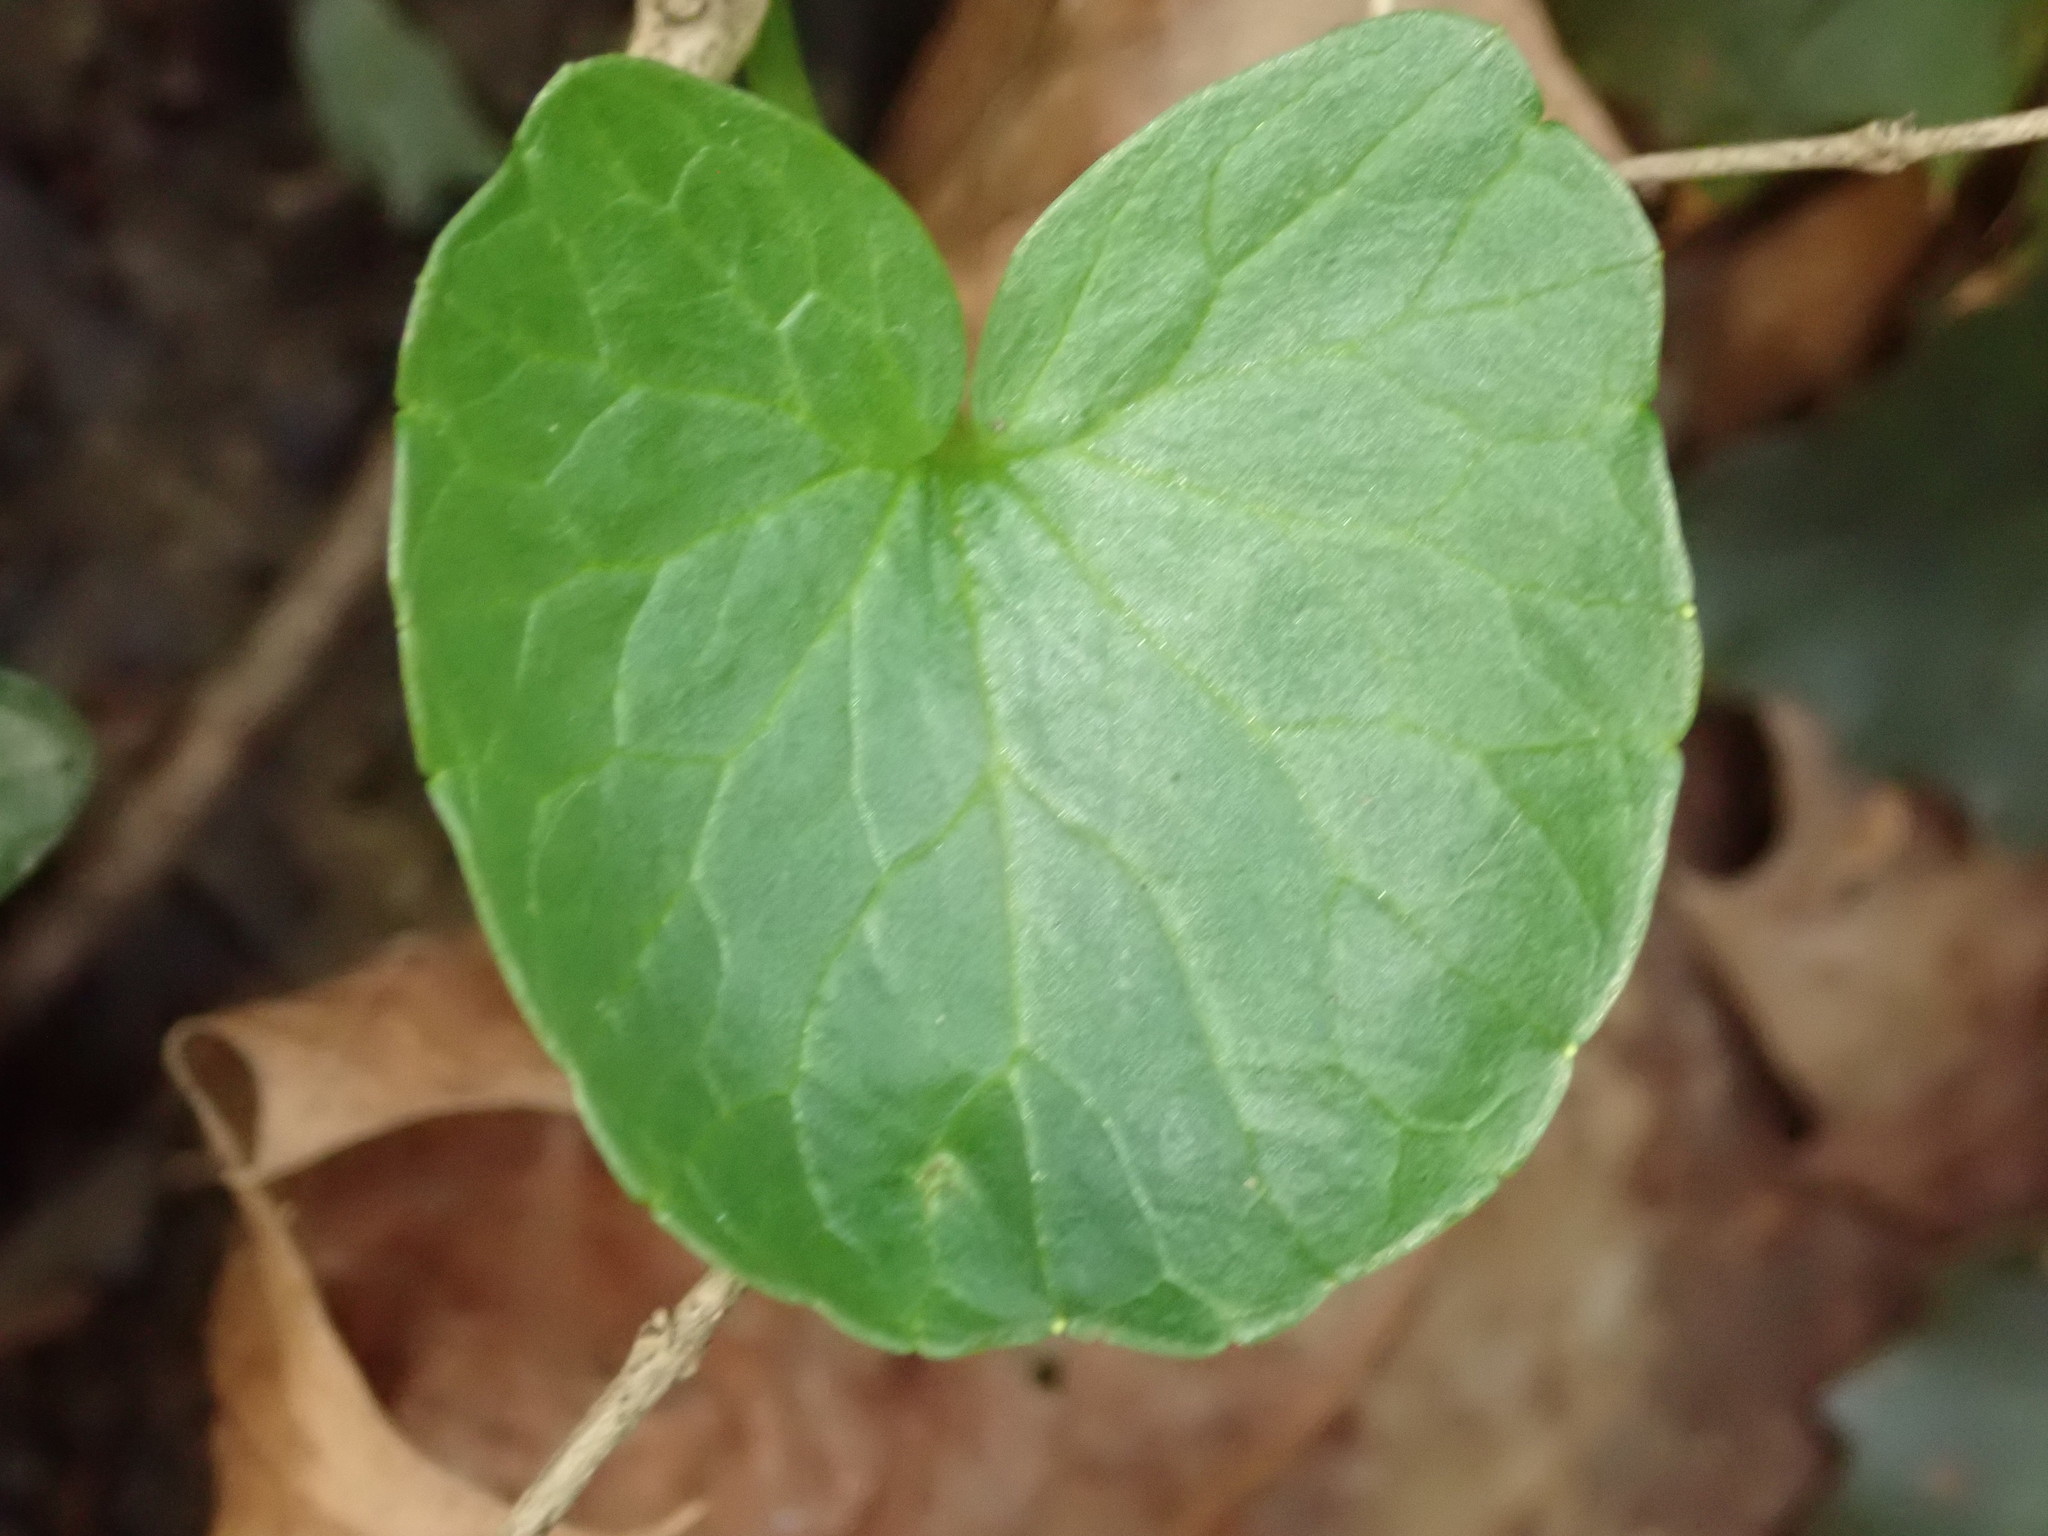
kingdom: Plantae
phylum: Tracheophyta
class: Magnoliopsida
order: Ranunculales
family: Ranunculaceae
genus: Ficaria
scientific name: Ficaria verna
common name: Lesser celandine
